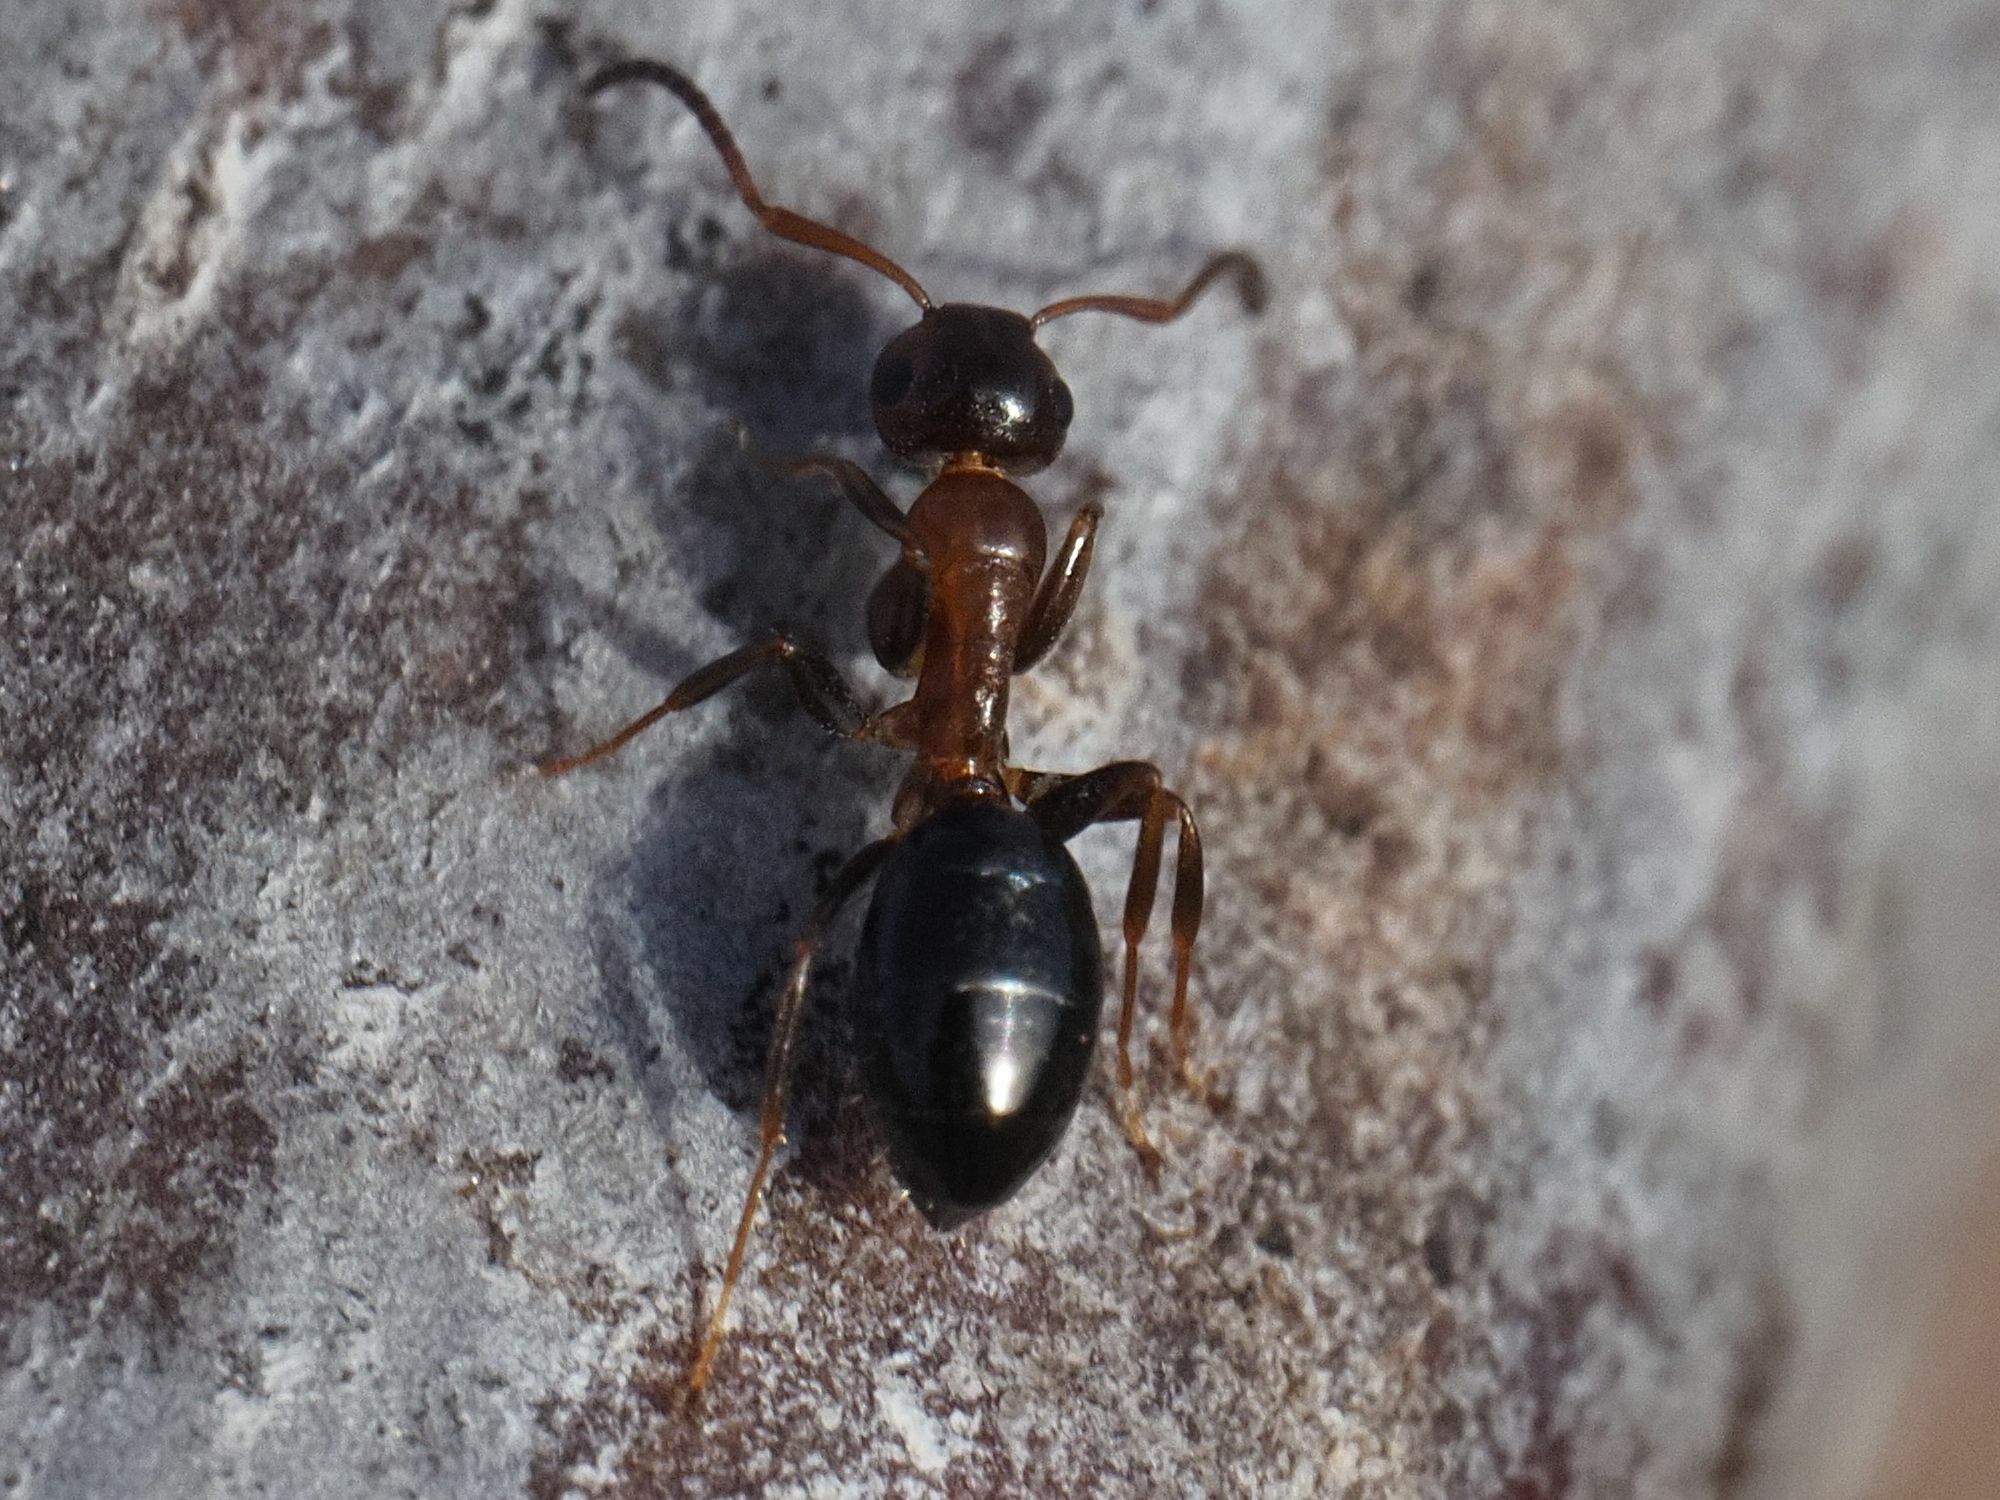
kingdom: Animalia
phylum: Arthropoda
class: Insecta
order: Hymenoptera
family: Formicidae
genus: Camponotus
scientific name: Camponotus truncatus
